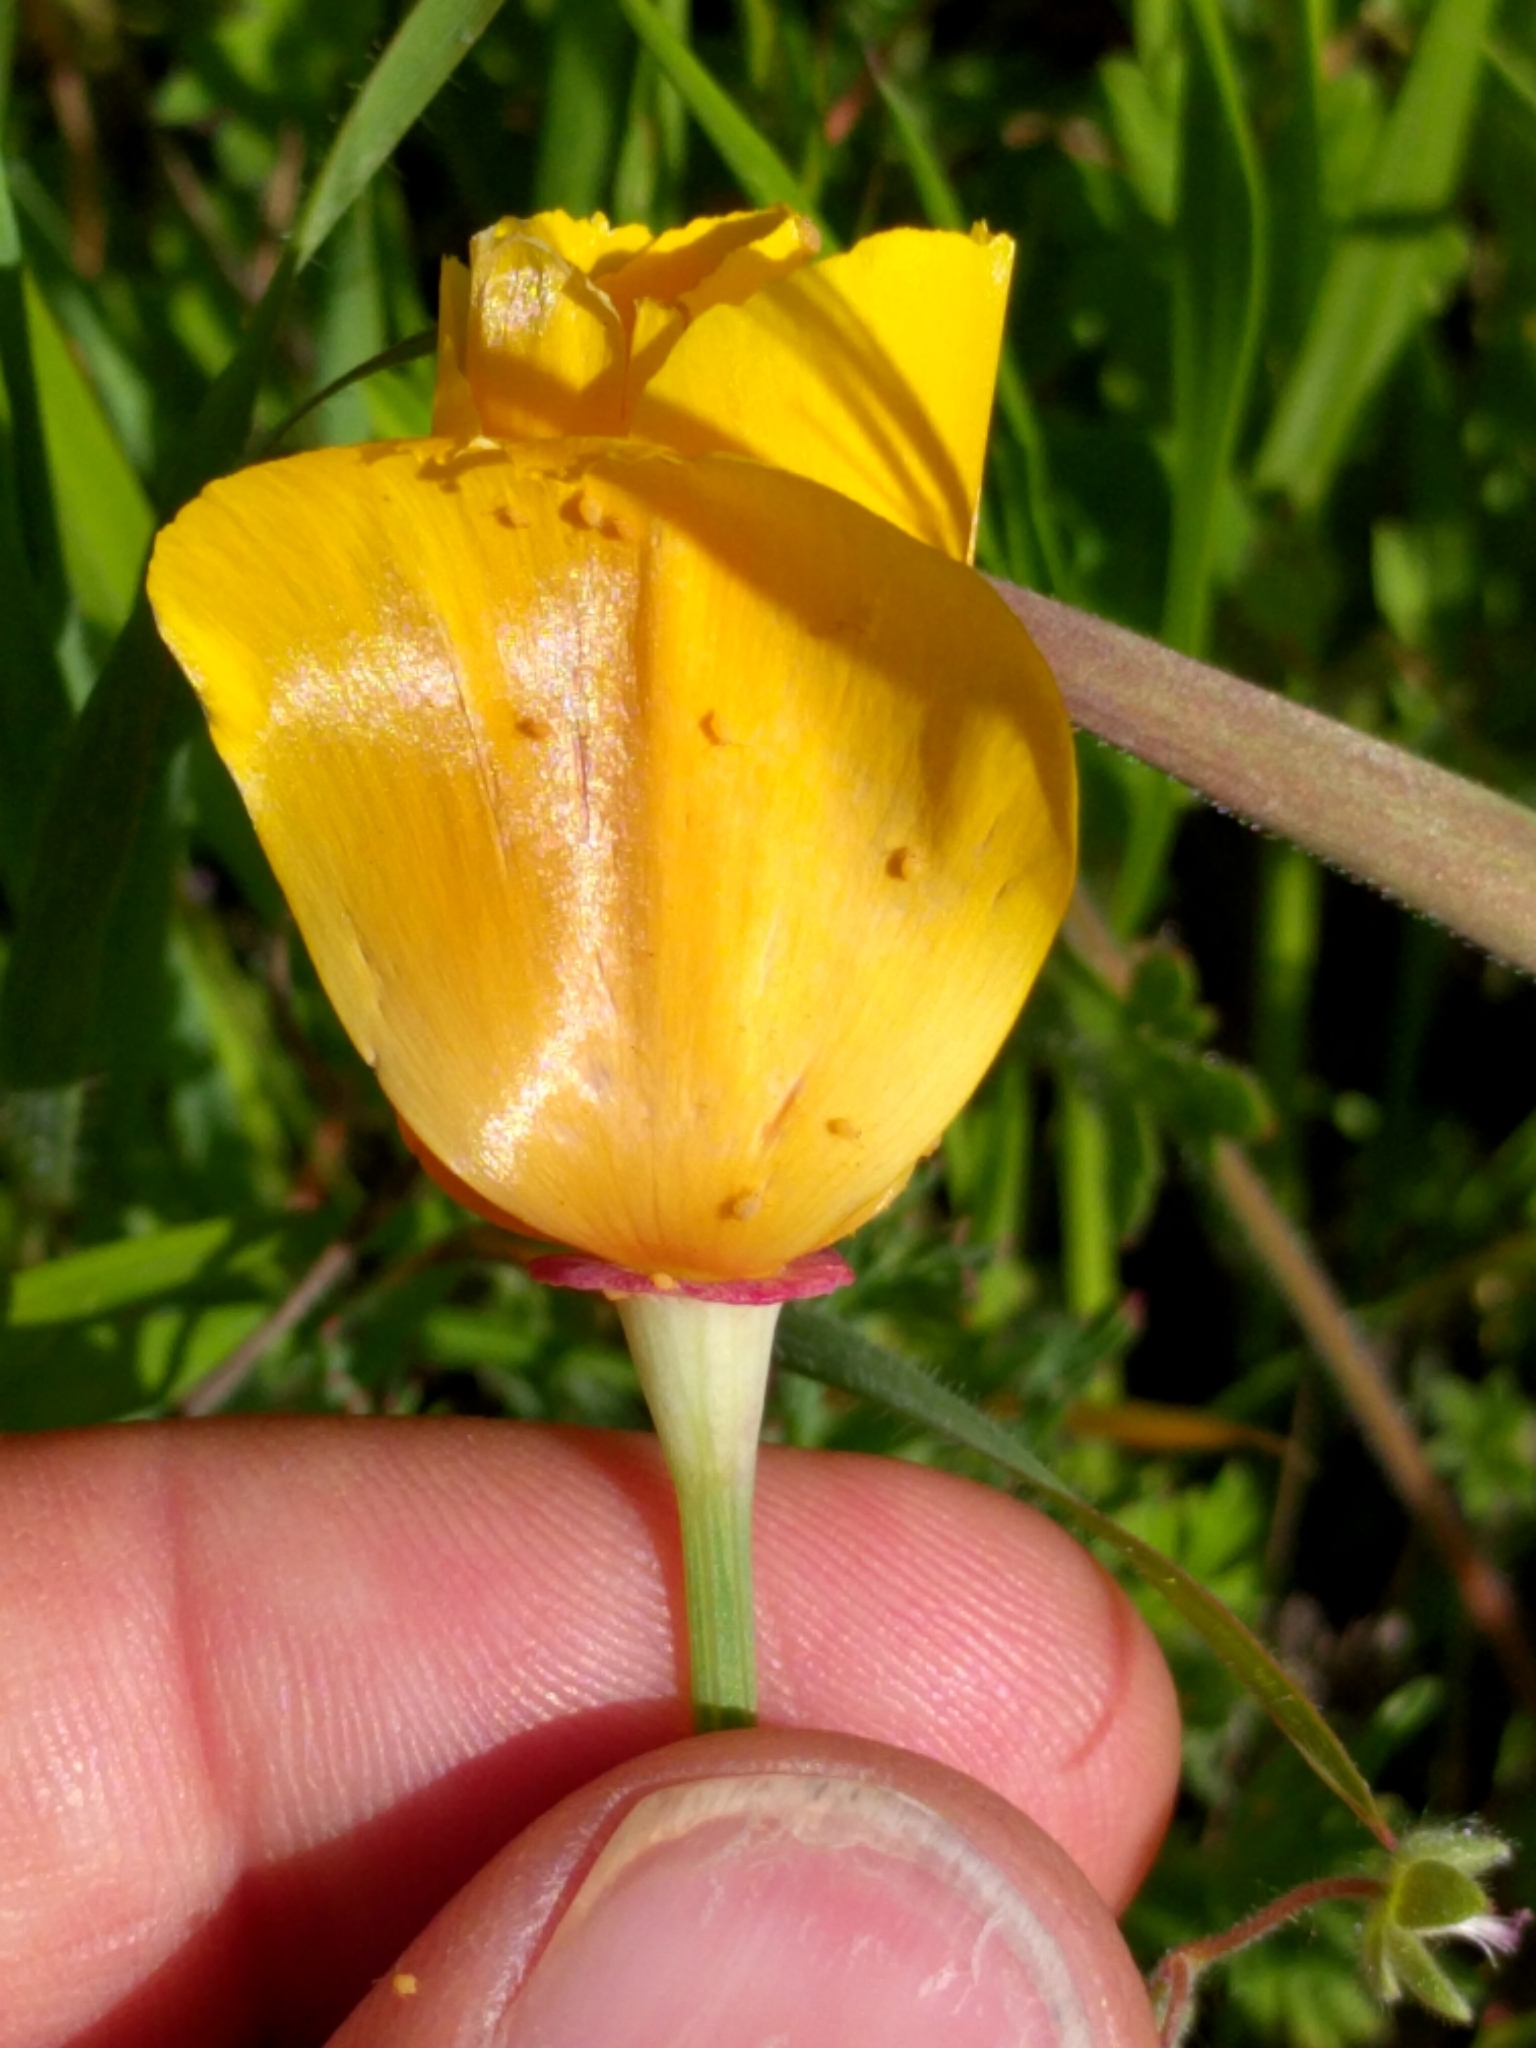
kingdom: Plantae
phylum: Tracheophyta
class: Magnoliopsida
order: Ranunculales
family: Papaveraceae
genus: Eschscholzia
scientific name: Eschscholzia californica
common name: California poppy
